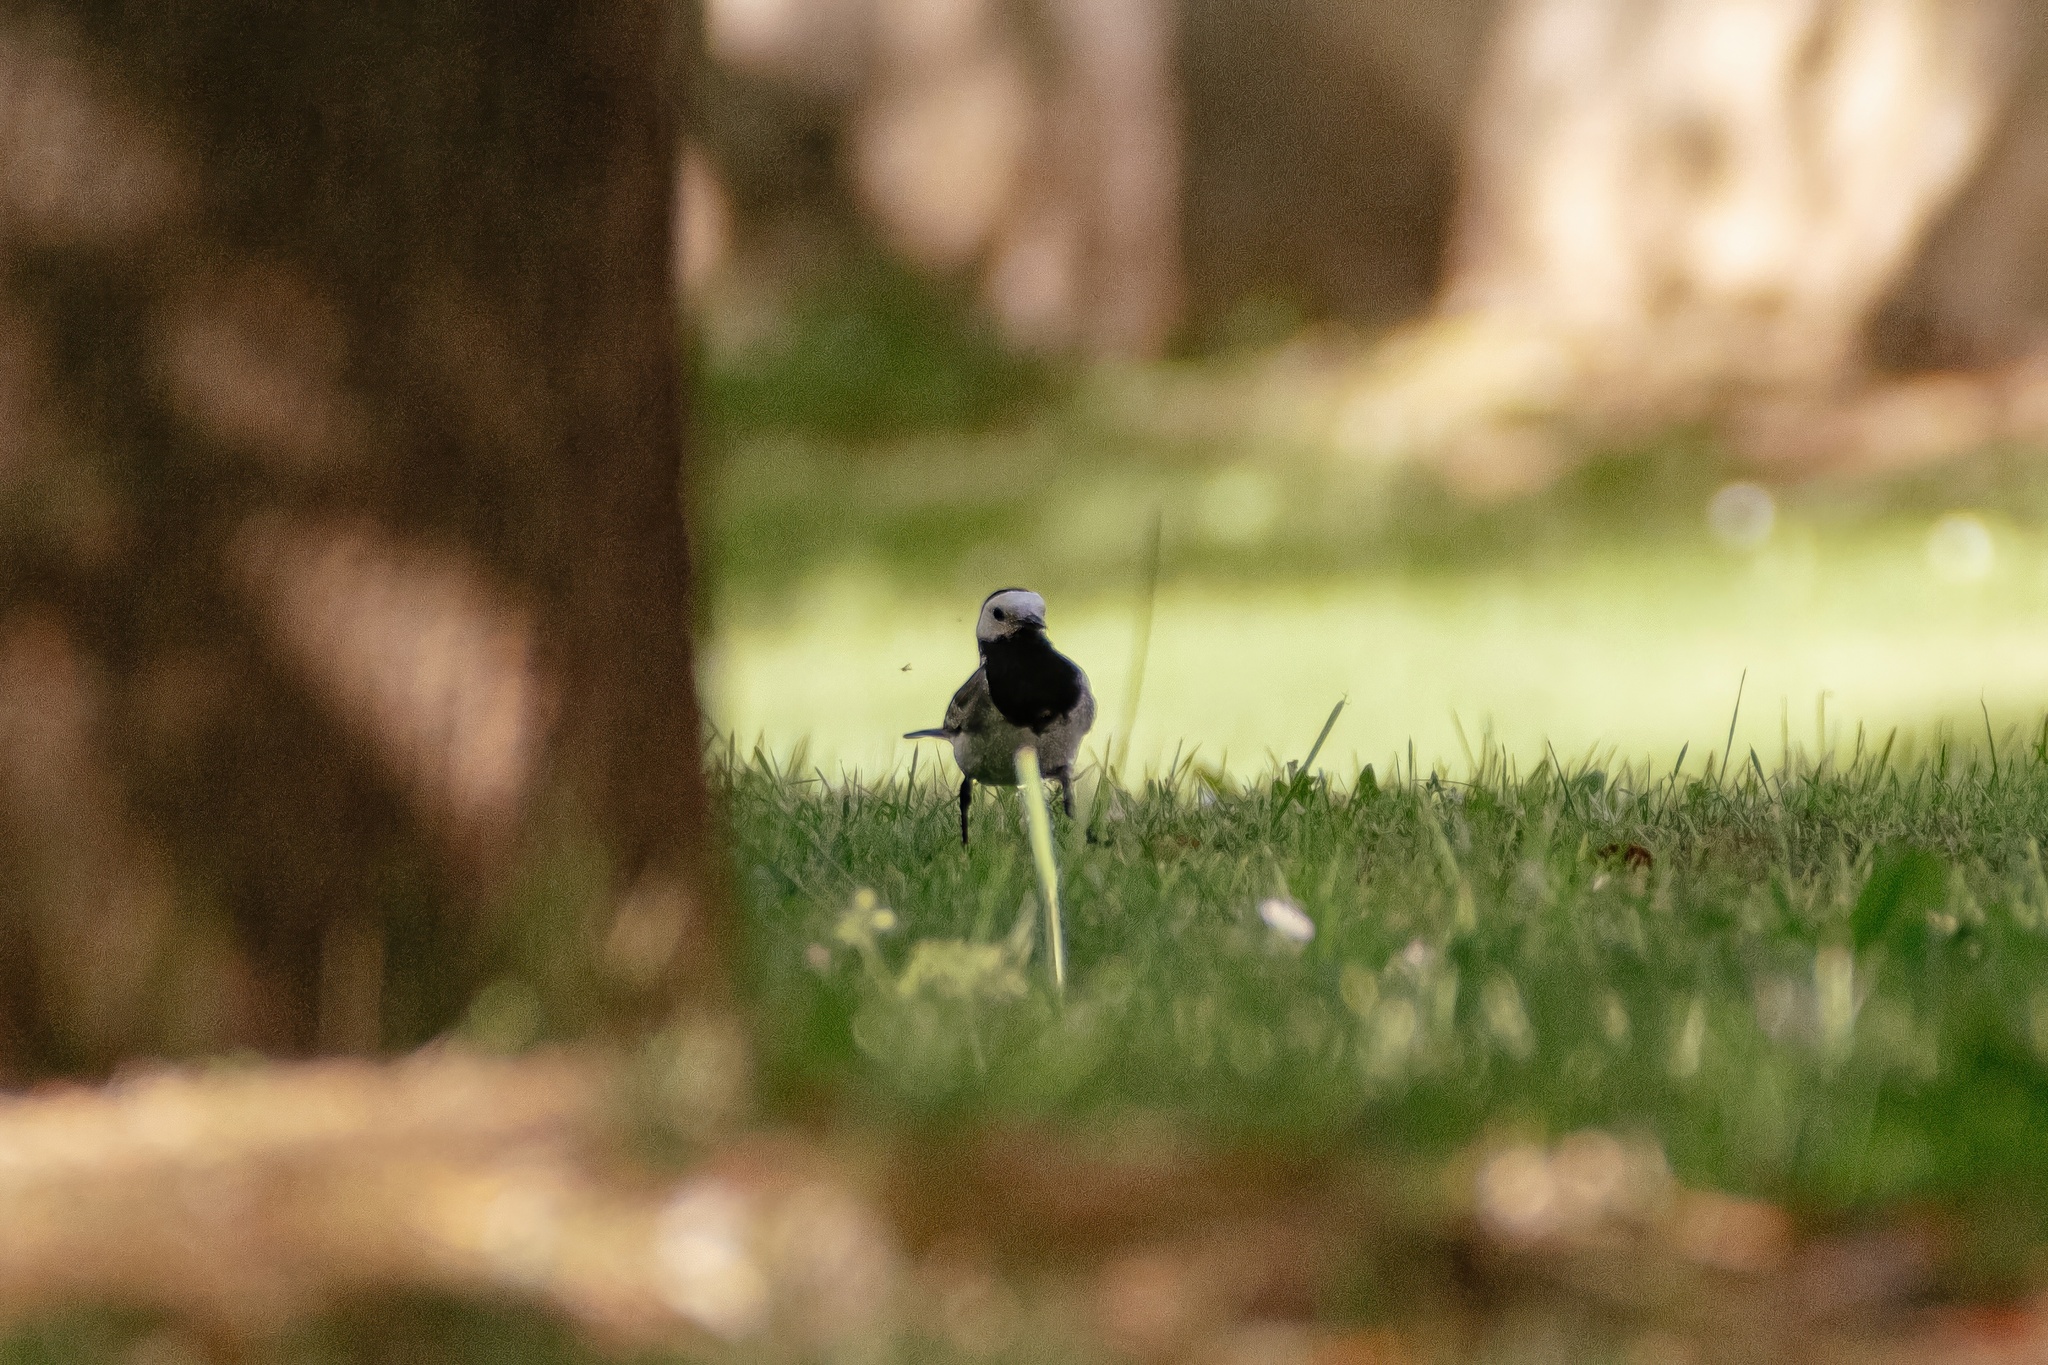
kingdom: Animalia
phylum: Chordata
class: Aves
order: Passeriformes
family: Motacillidae
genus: Motacilla
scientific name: Motacilla alba
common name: White wagtail
